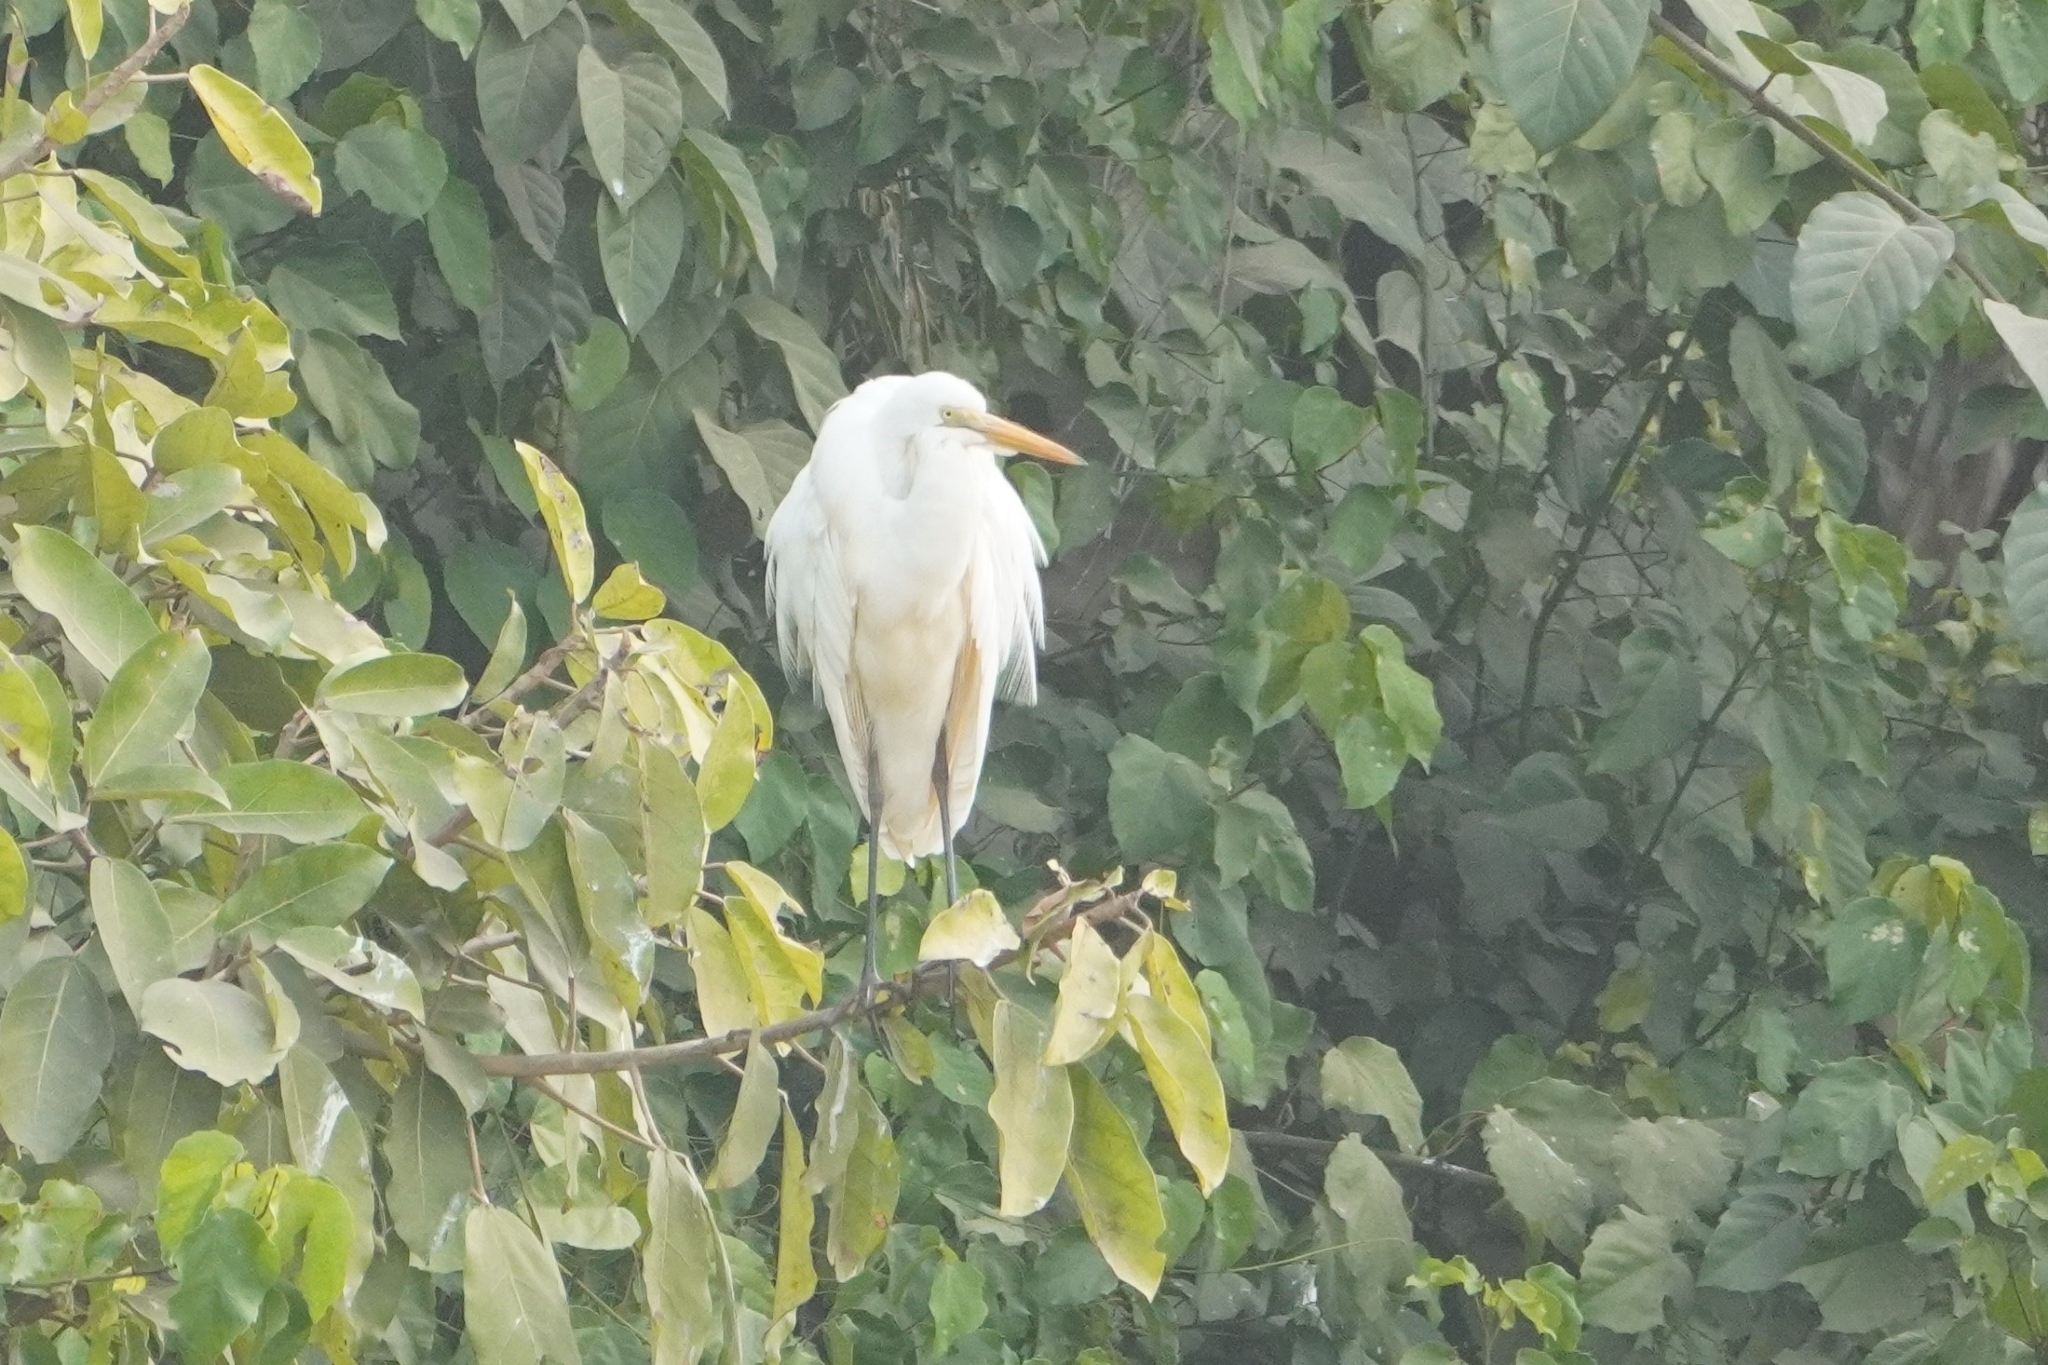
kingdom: Animalia
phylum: Chordata
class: Aves
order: Pelecaniformes
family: Ardeidae
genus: Egretta
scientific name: Egretta intermedia
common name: Intermediate egret
